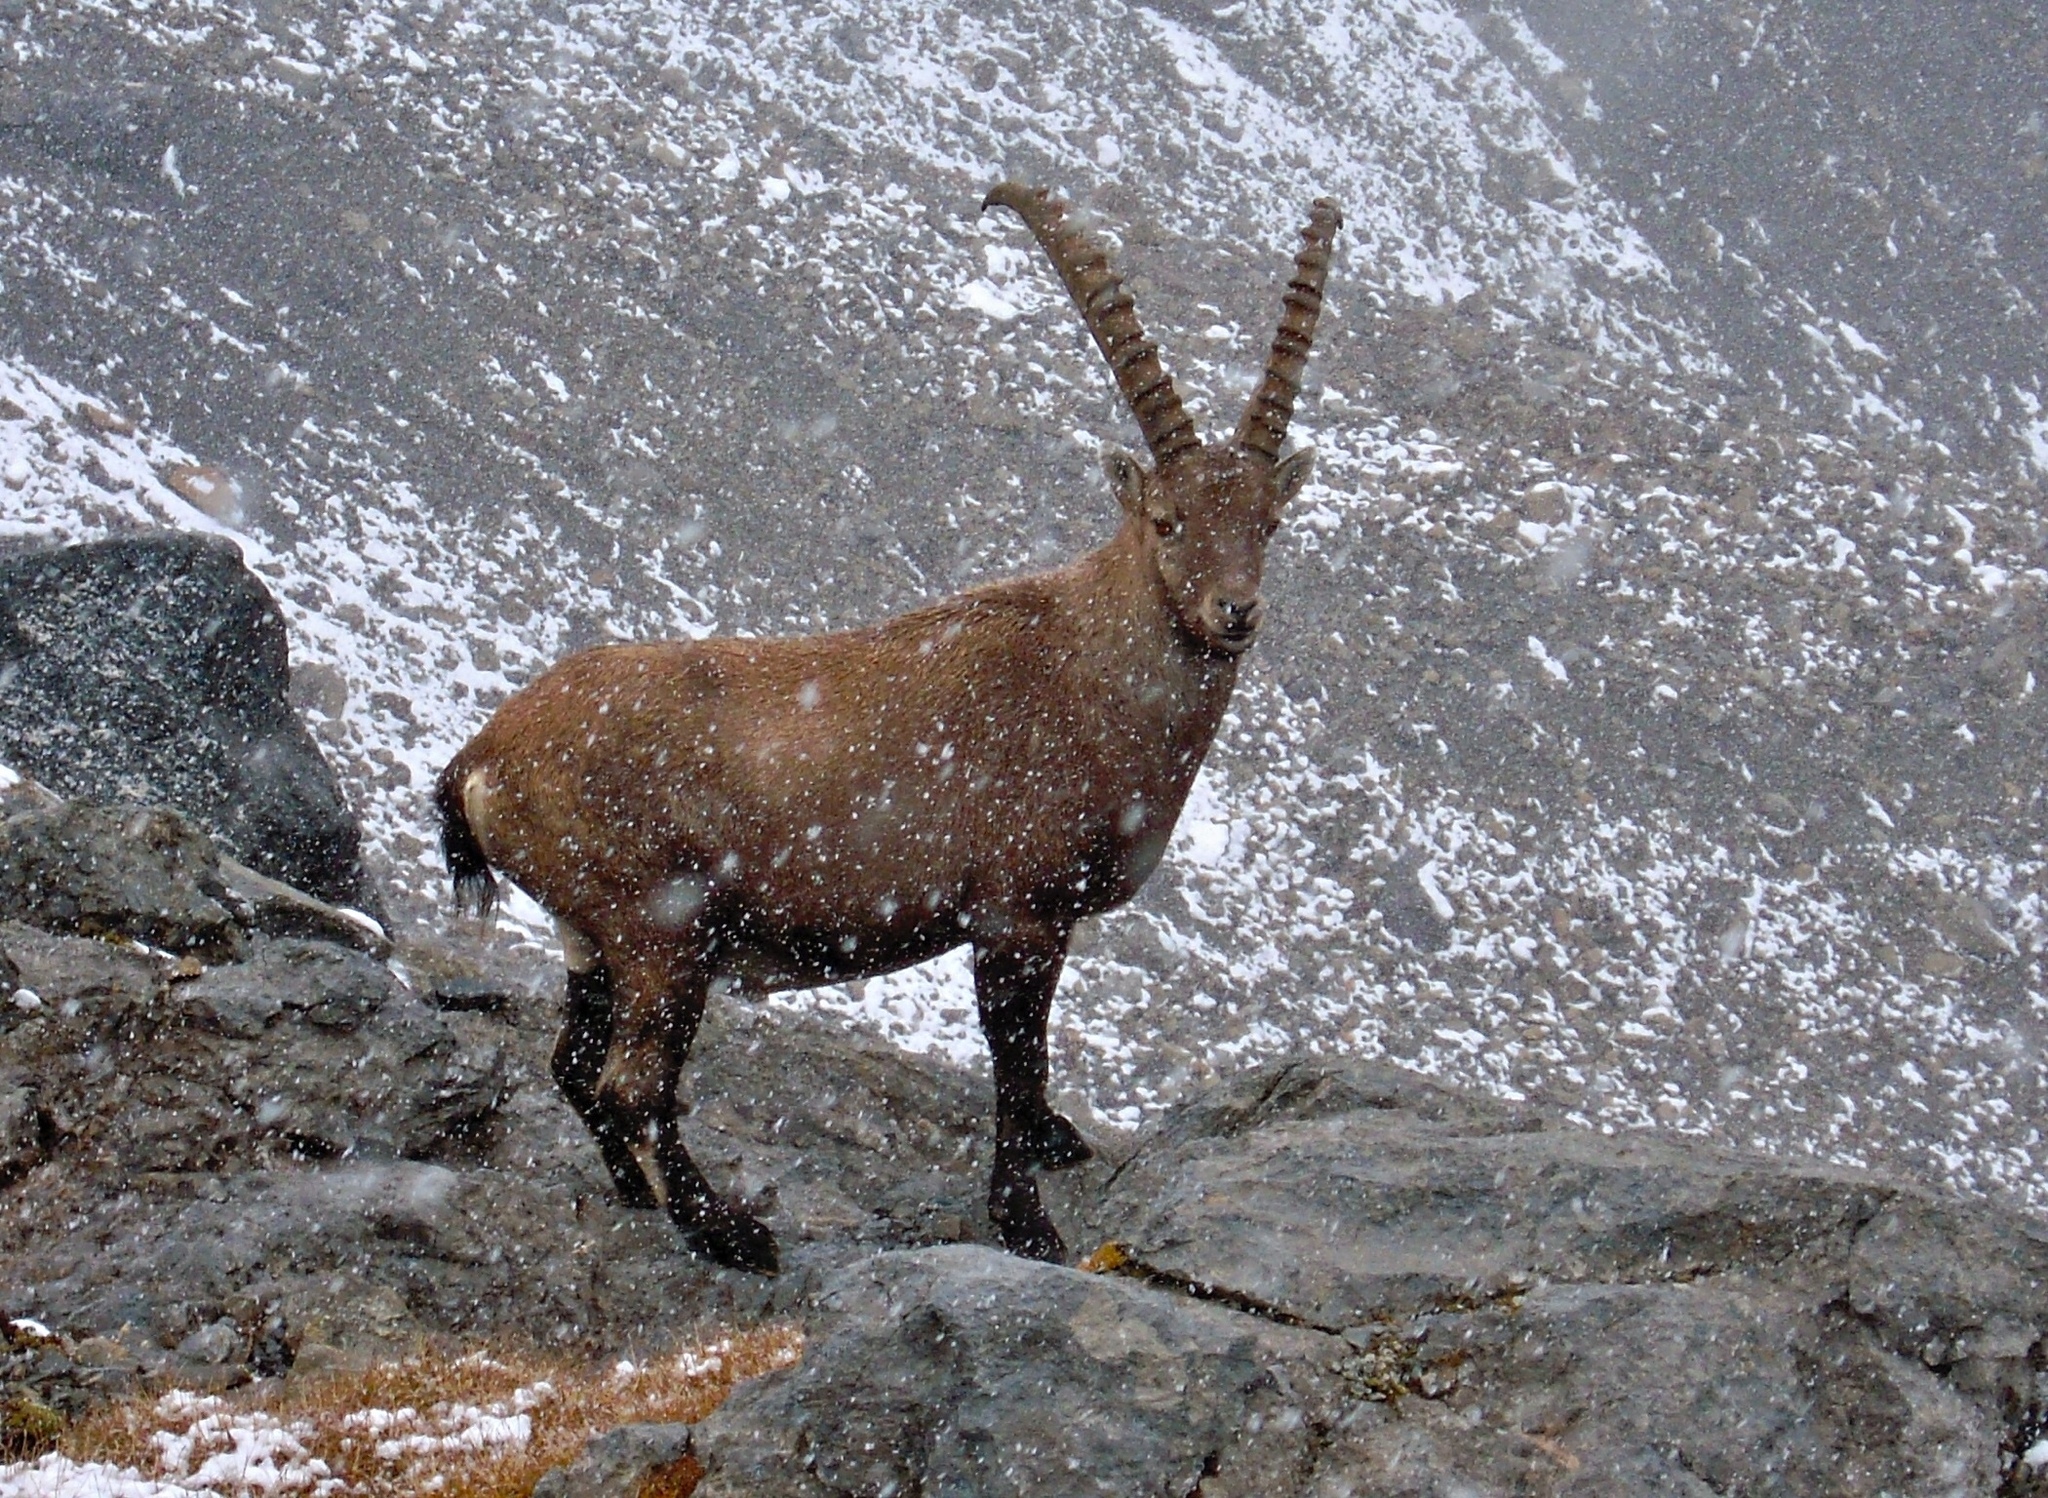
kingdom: Animalia
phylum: Chordata
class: Mammalia
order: Artiodactyla
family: Bovidae
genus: Capra
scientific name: Capra ibex
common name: Alpine ibex
